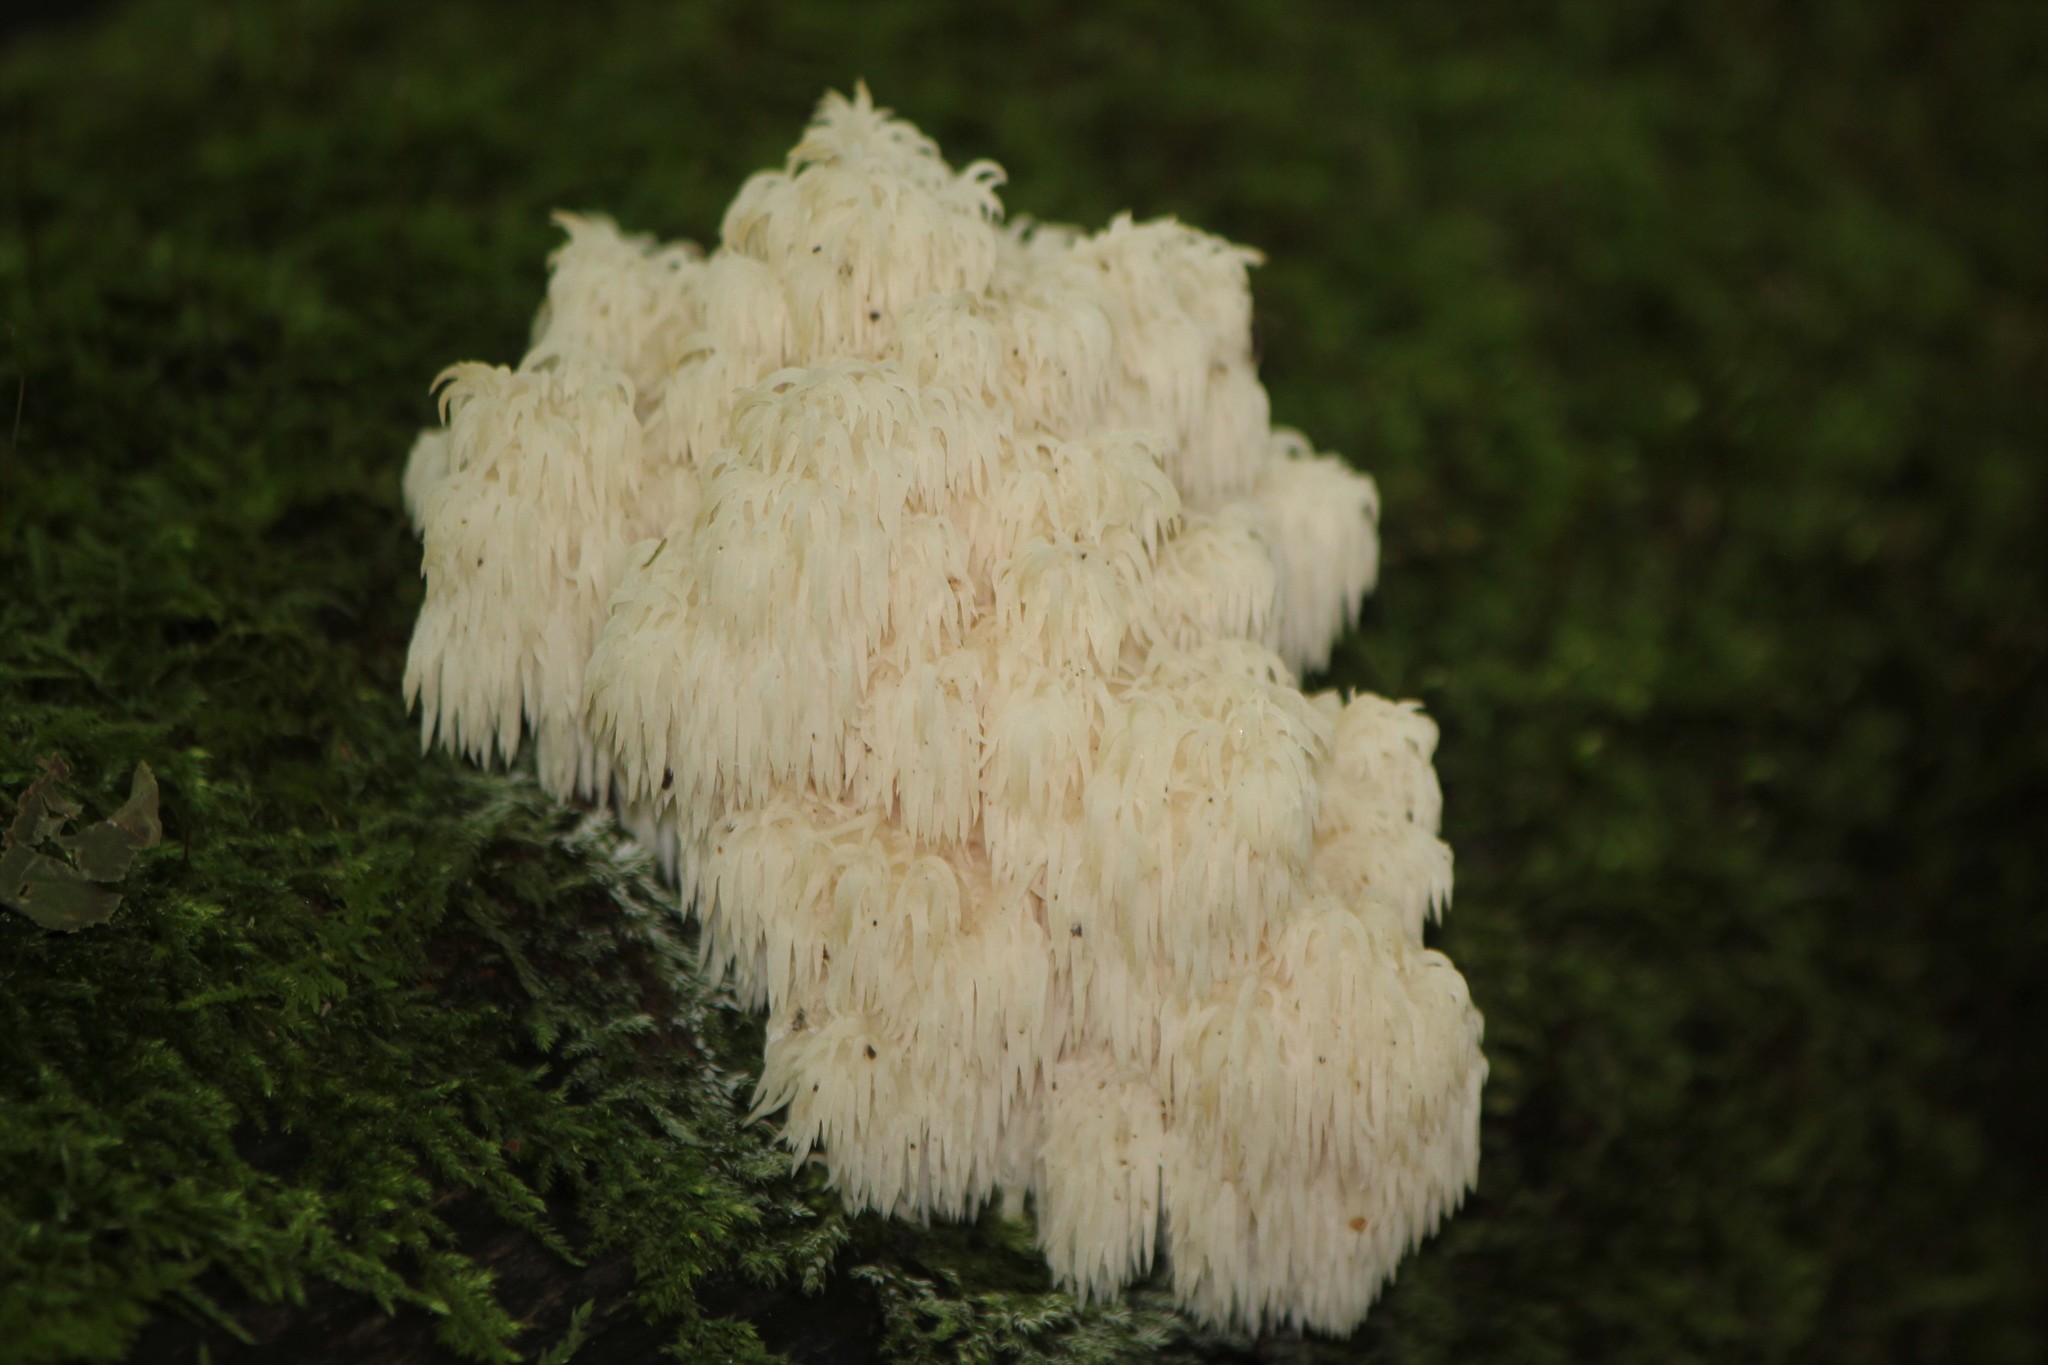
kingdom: Fungi
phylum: Basidiomycota
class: Agaricomycetes
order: Russulales
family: Hericiaceae
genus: Hericium
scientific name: Hericium americanum
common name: Bear's head tooth
